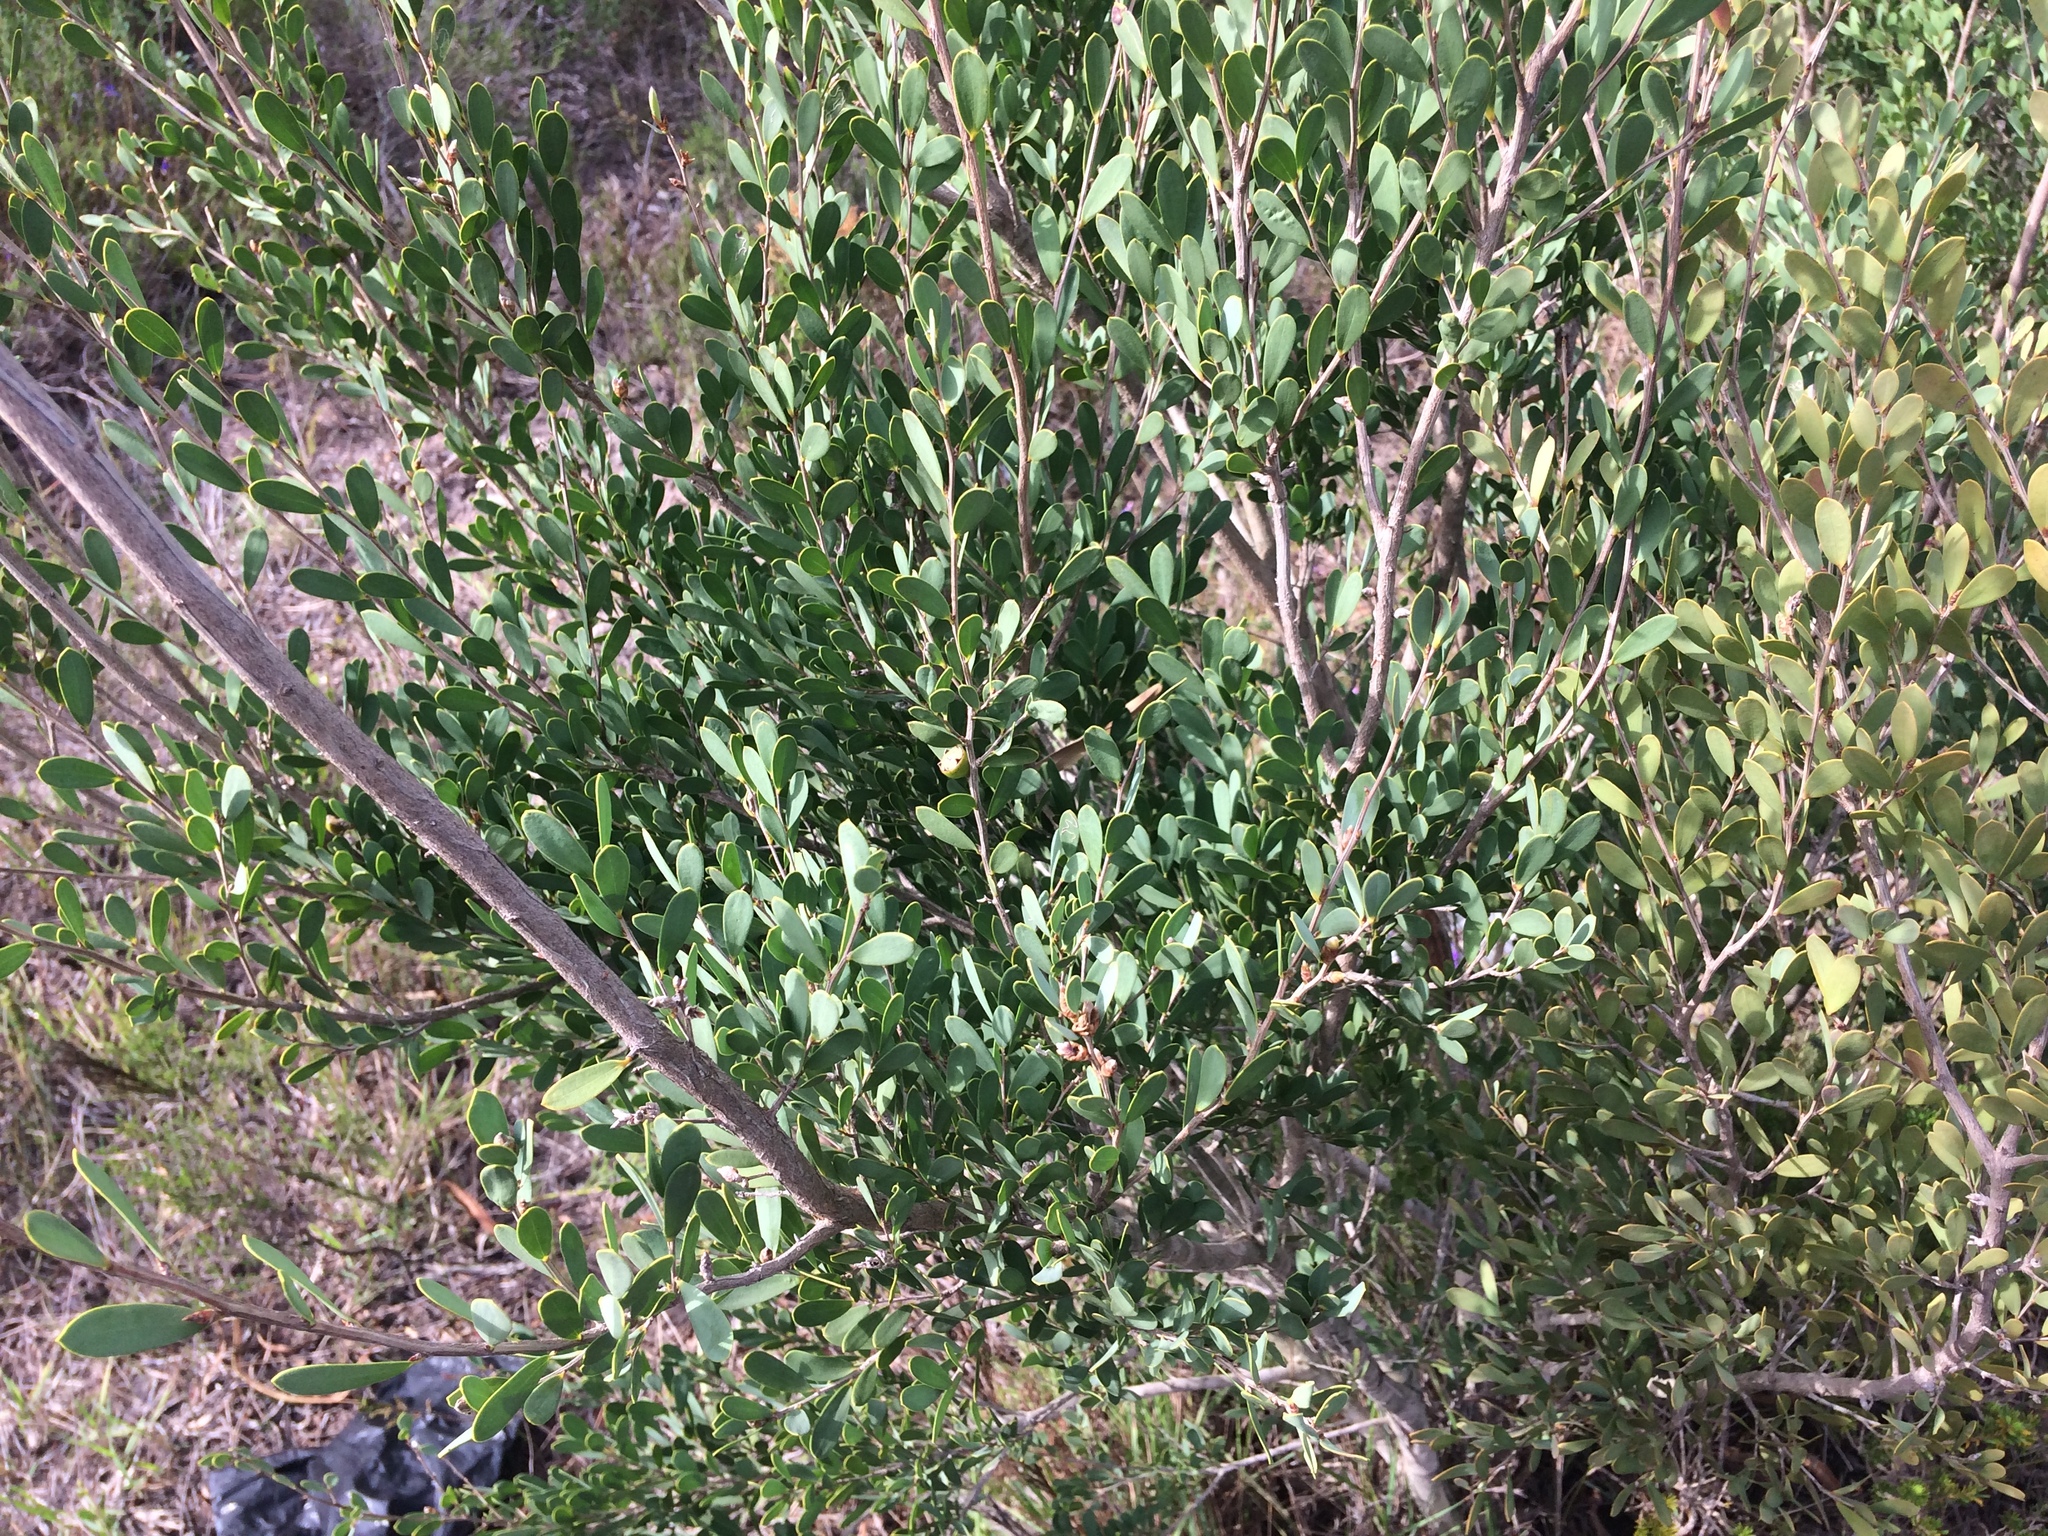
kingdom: Plantae
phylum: Tracheophyta
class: Magnoliopsida
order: Myrtales
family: Myrtaceae
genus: Leptospermum
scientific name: Leptospermum laevigatum
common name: Australian teatree
